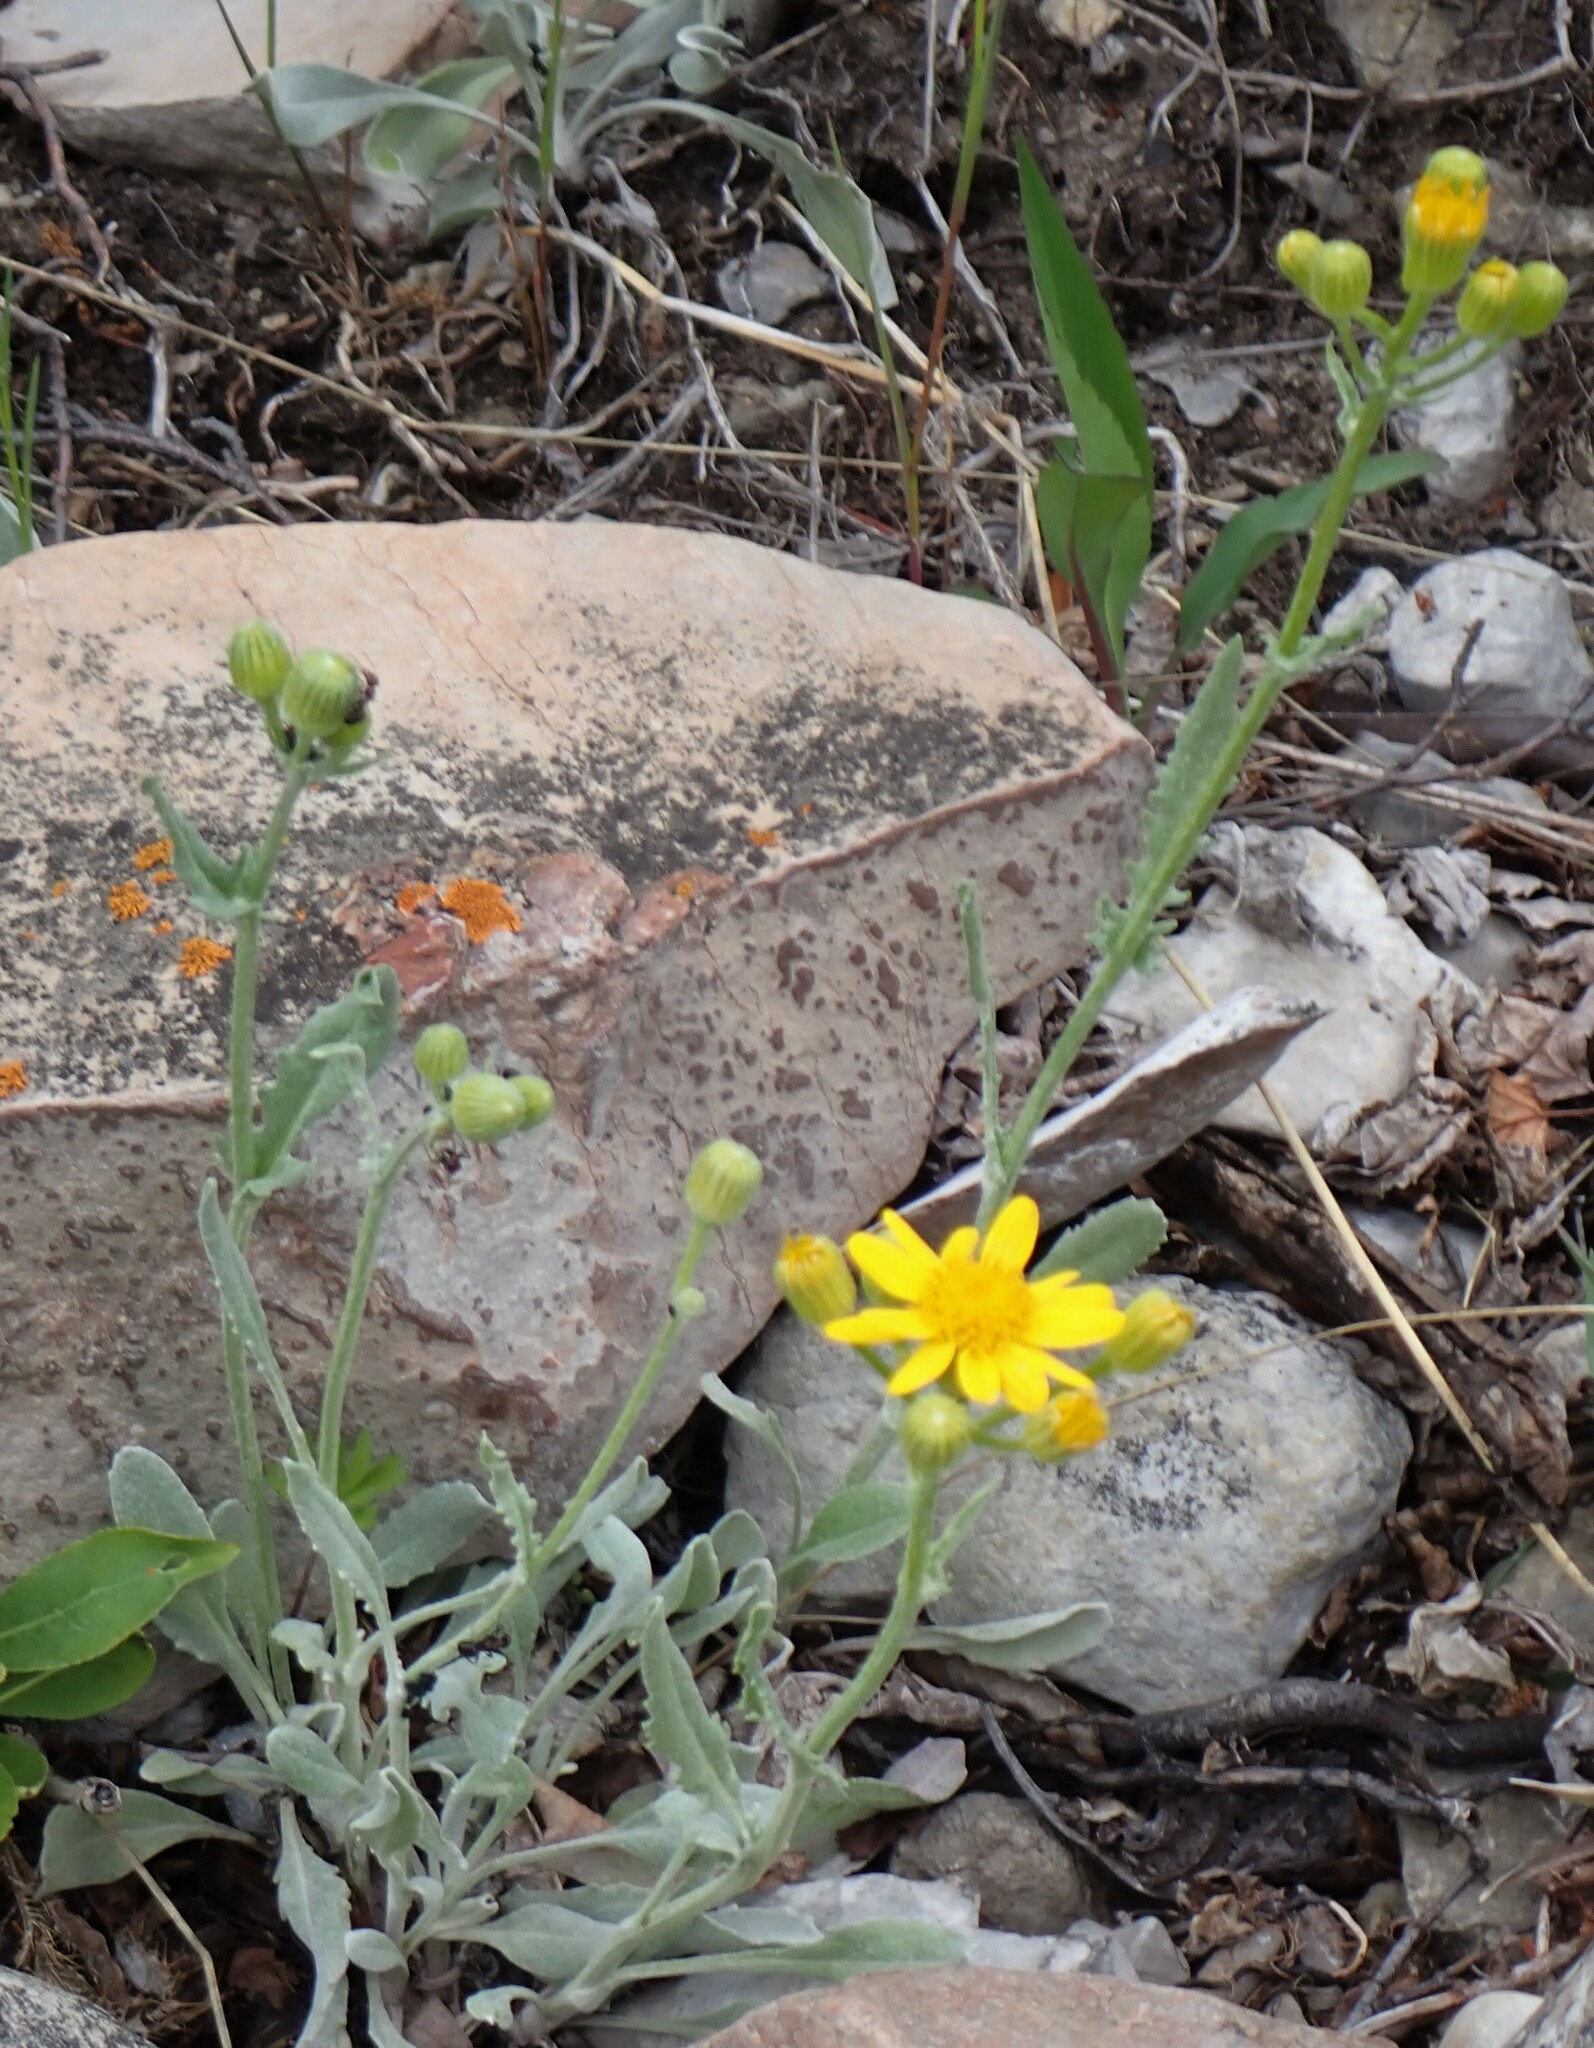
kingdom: Plantae
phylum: Tracheophyta
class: Magnoliopsida
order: Asterales
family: Asteraceae
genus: Packera
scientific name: Packera cana
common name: Woolly groundsel
